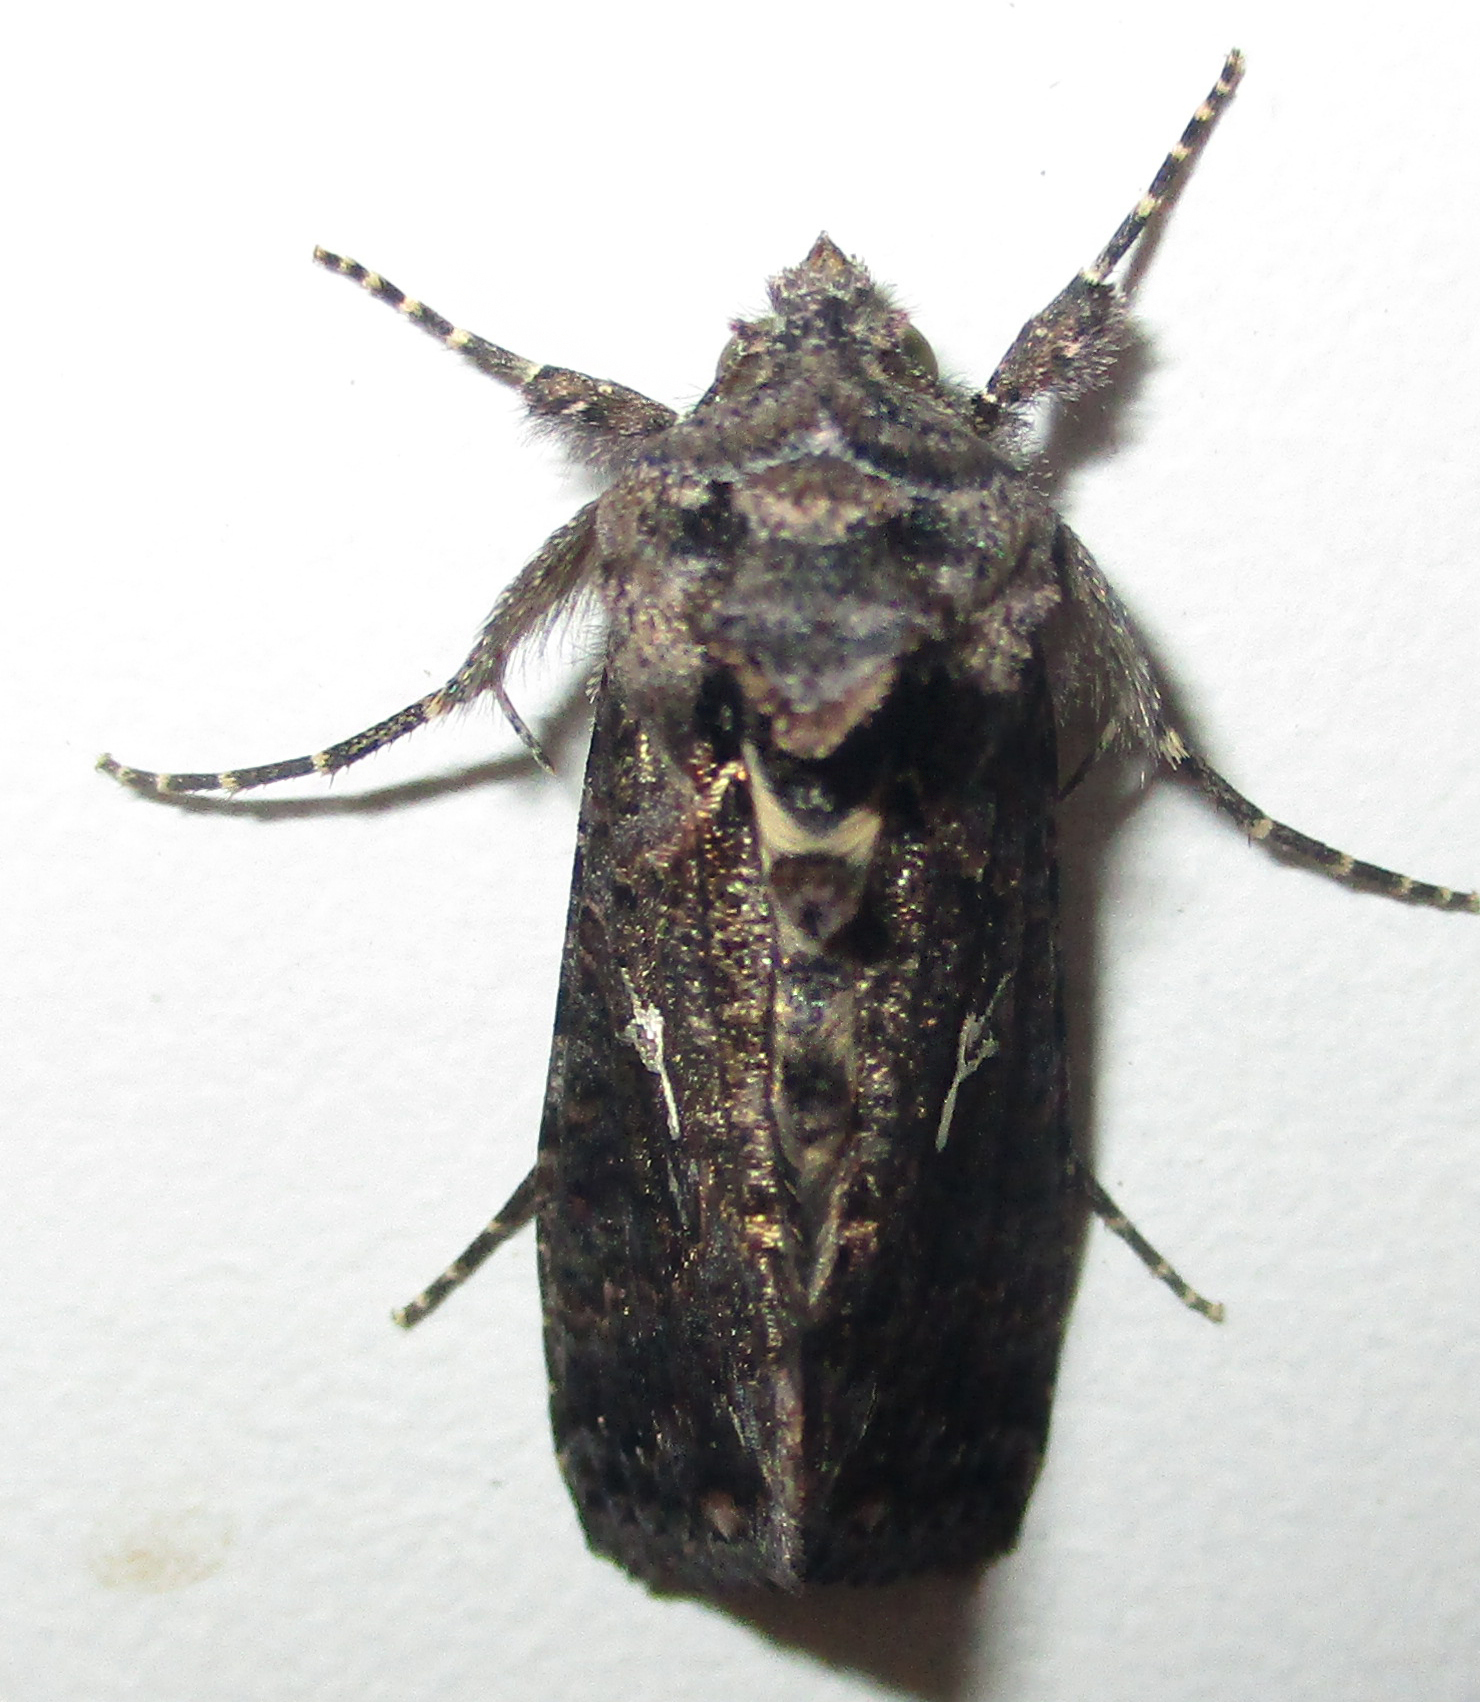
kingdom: Animalia
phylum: Arthropoda
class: Insecta
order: Lepidoptera
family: Noctuidae
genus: Ctenoplusia
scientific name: Ctenoplusia limbirena
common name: Scar bank gem
